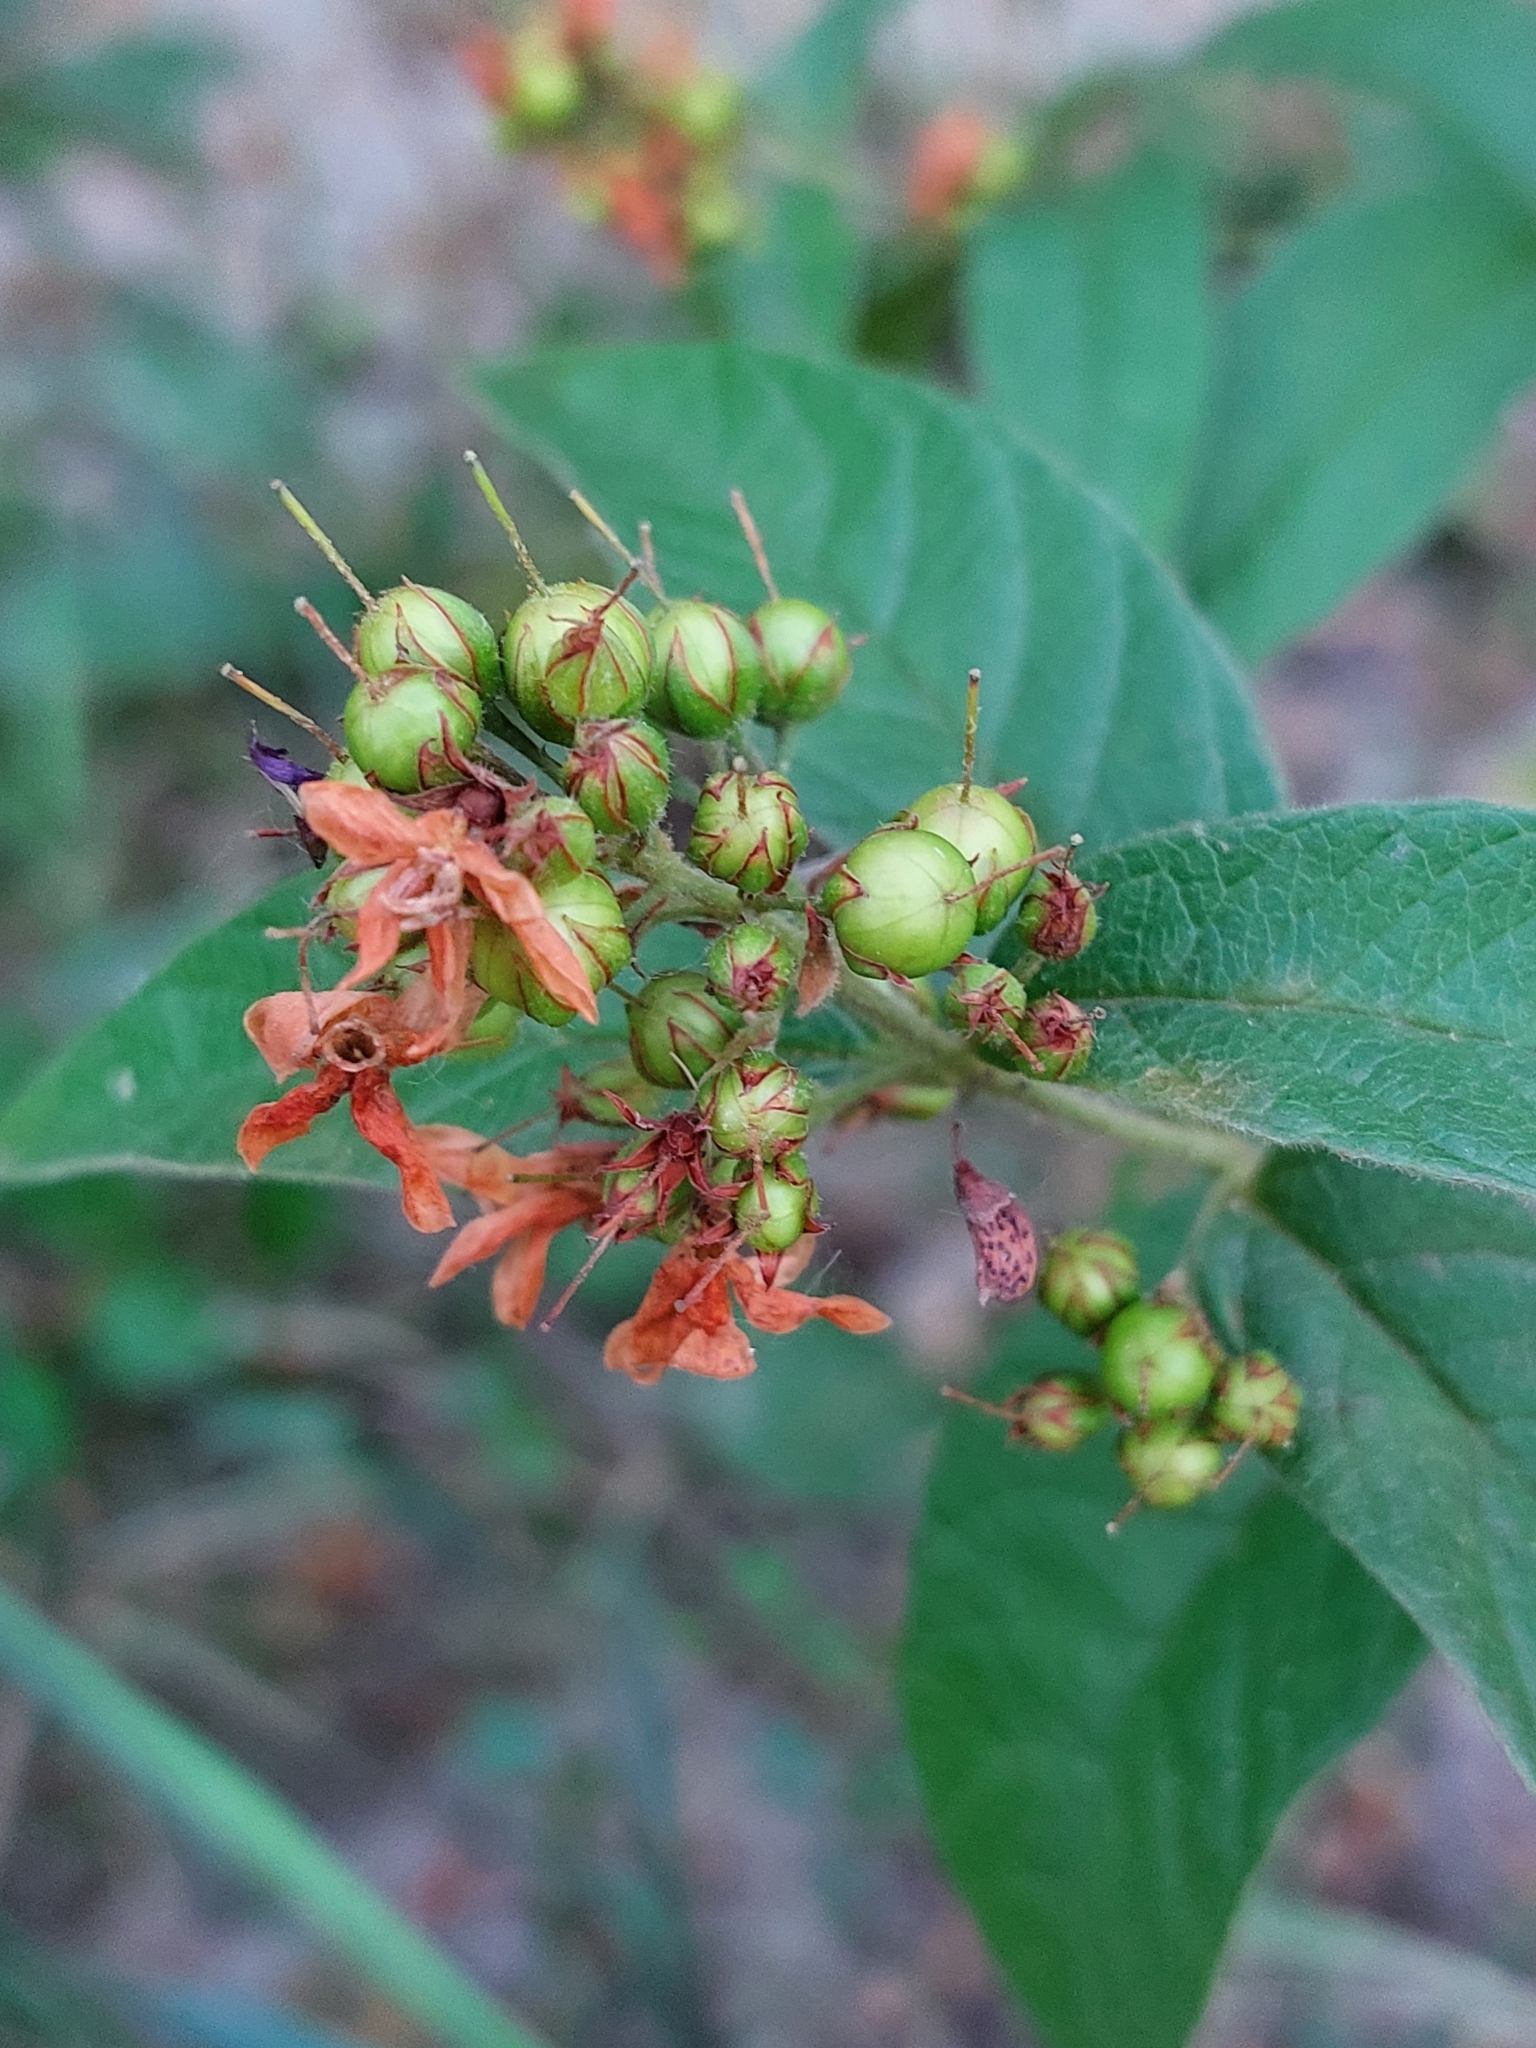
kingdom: Plantae
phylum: Tracheophyta
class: Magnoliopsida
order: Ericales
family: Primulaceae
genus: Lysimachia
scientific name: Lysimachia vulgaris
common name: Yellow loosestrife
